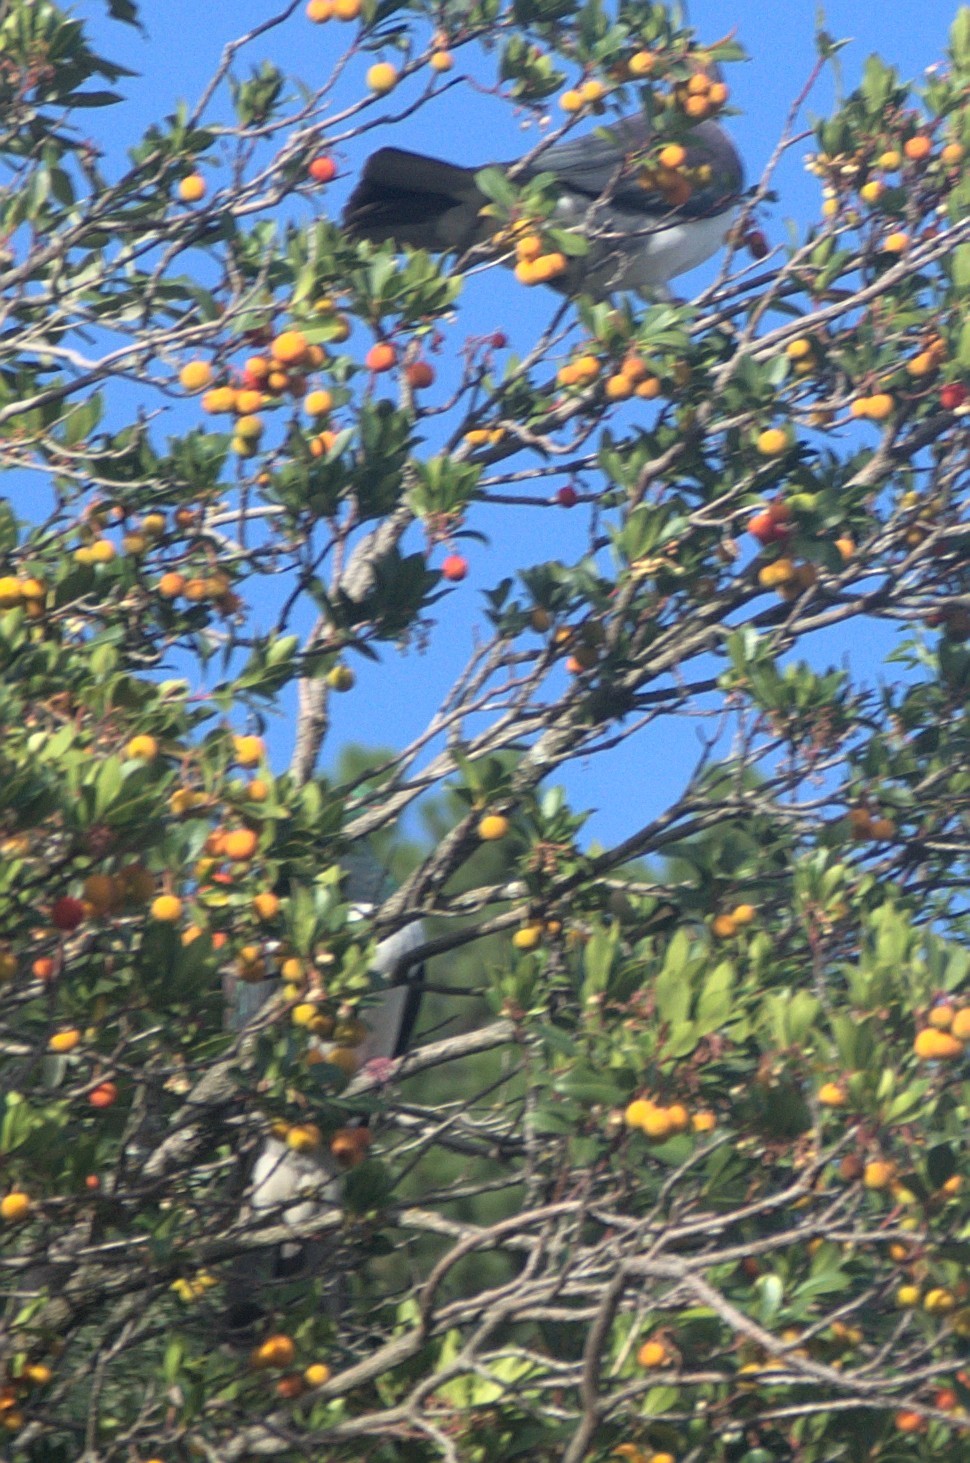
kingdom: Animalia
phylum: Chordata
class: Aves
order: Columbiformes
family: Columbidae
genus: Hemiphaga
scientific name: Hemiphaga novaeseelandiae
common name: New zealand pigeon
